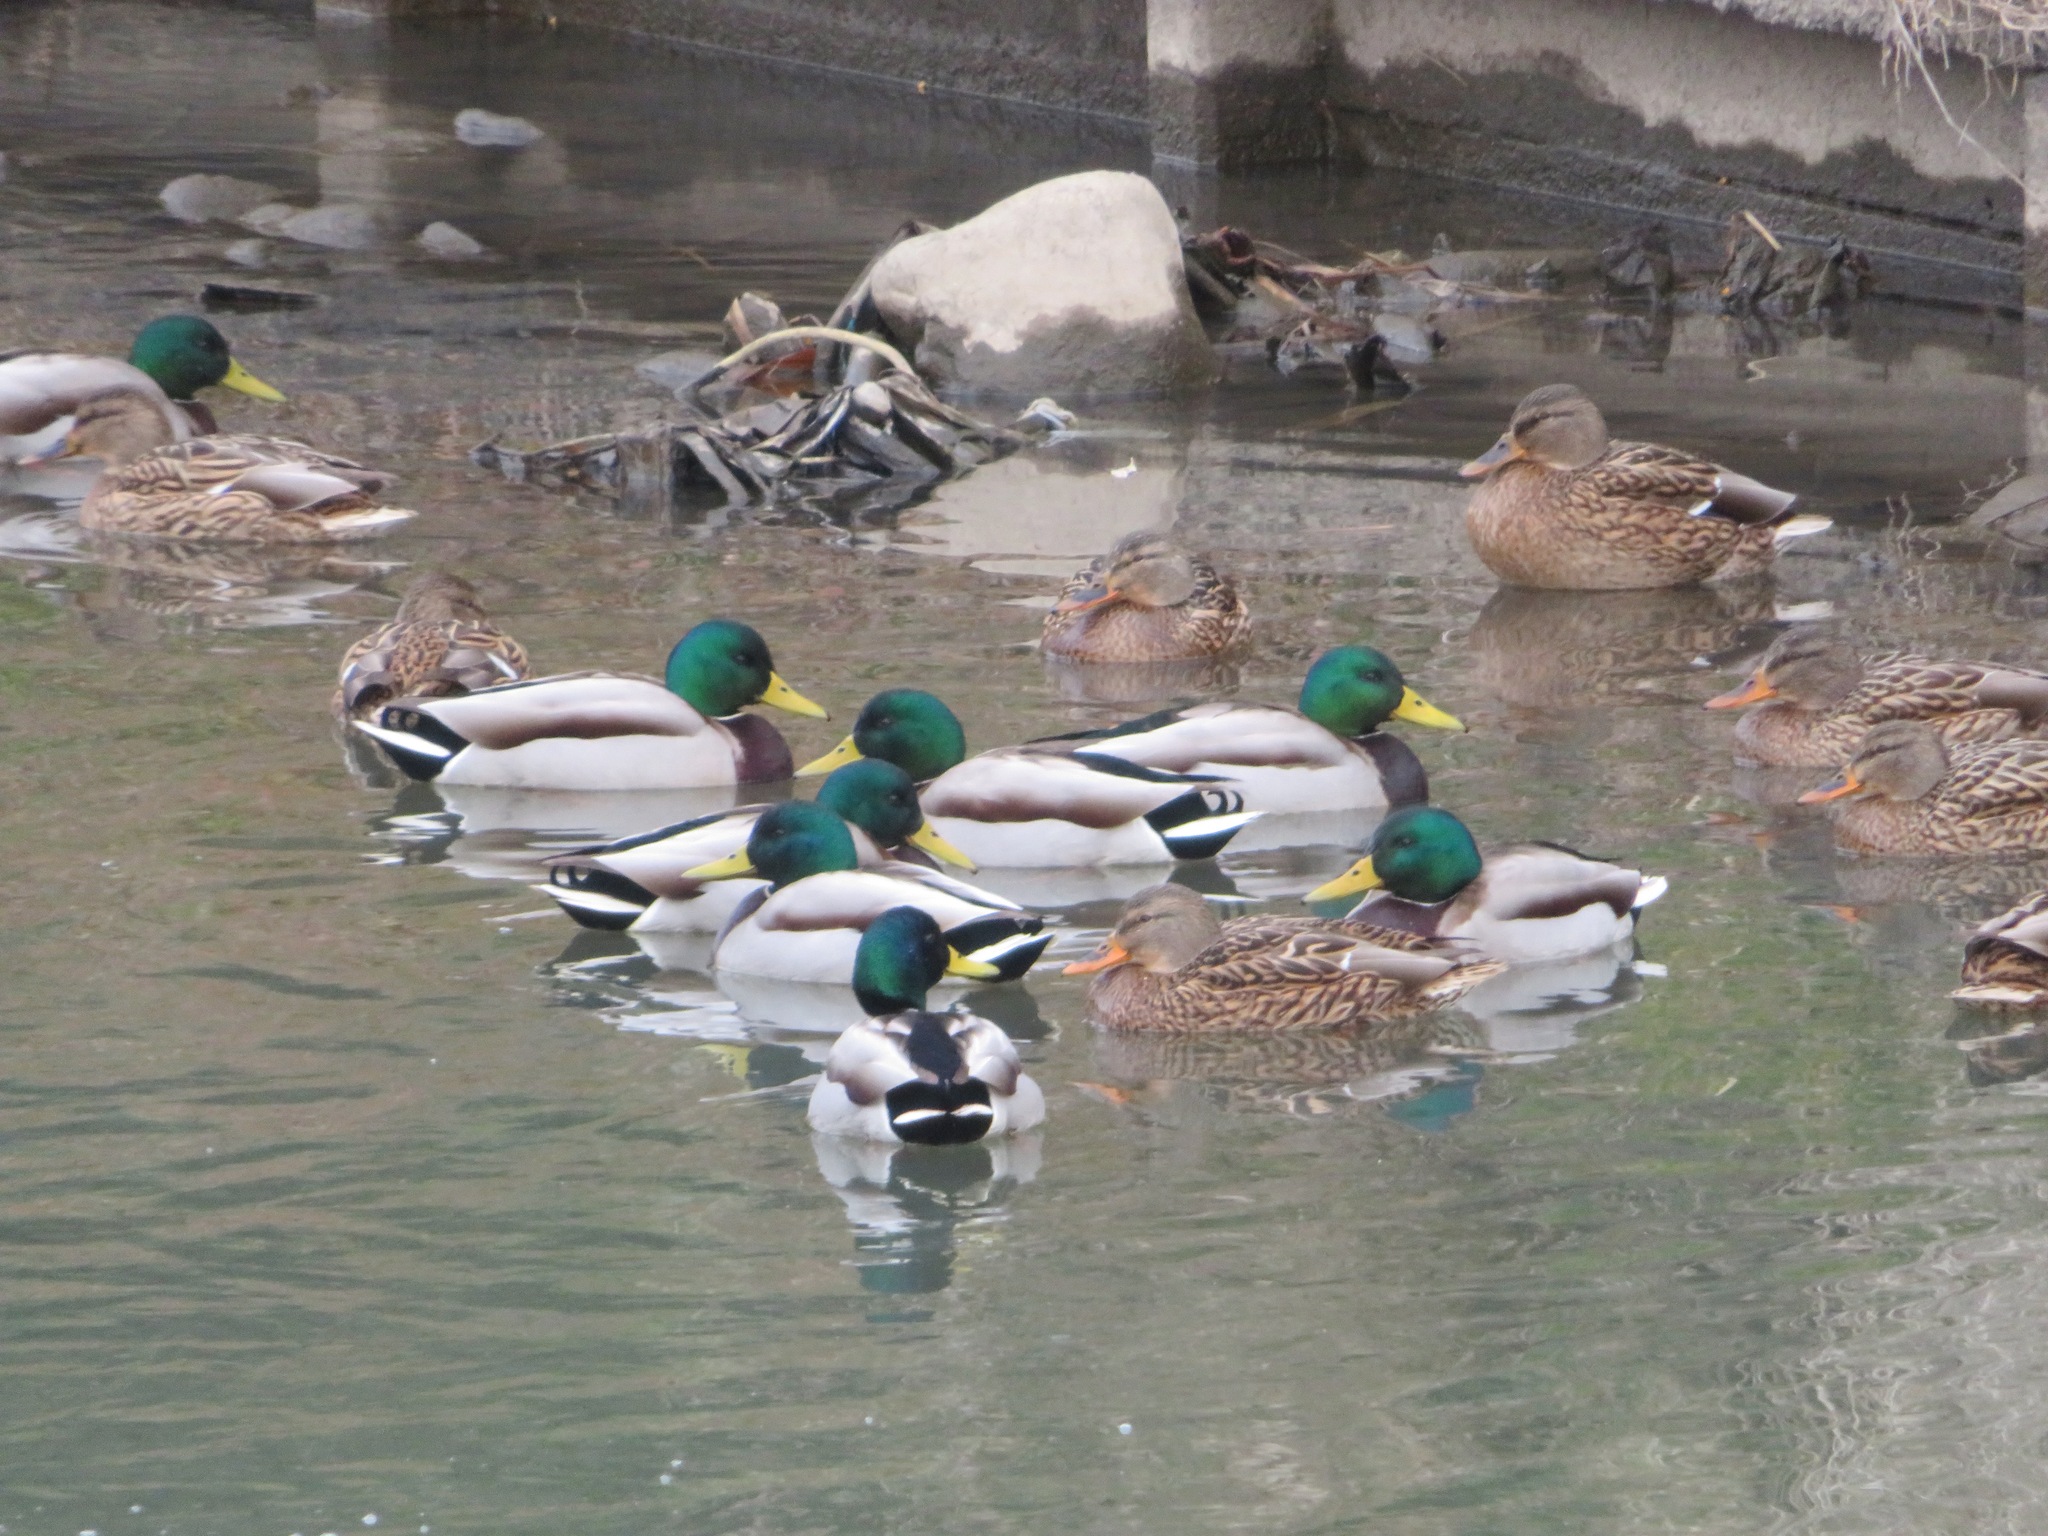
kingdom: Animalia
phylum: Chordata
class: Aves
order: Anseriformes
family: Anatidae
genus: Anas
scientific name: Anas platyrhynchos
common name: Mallard
